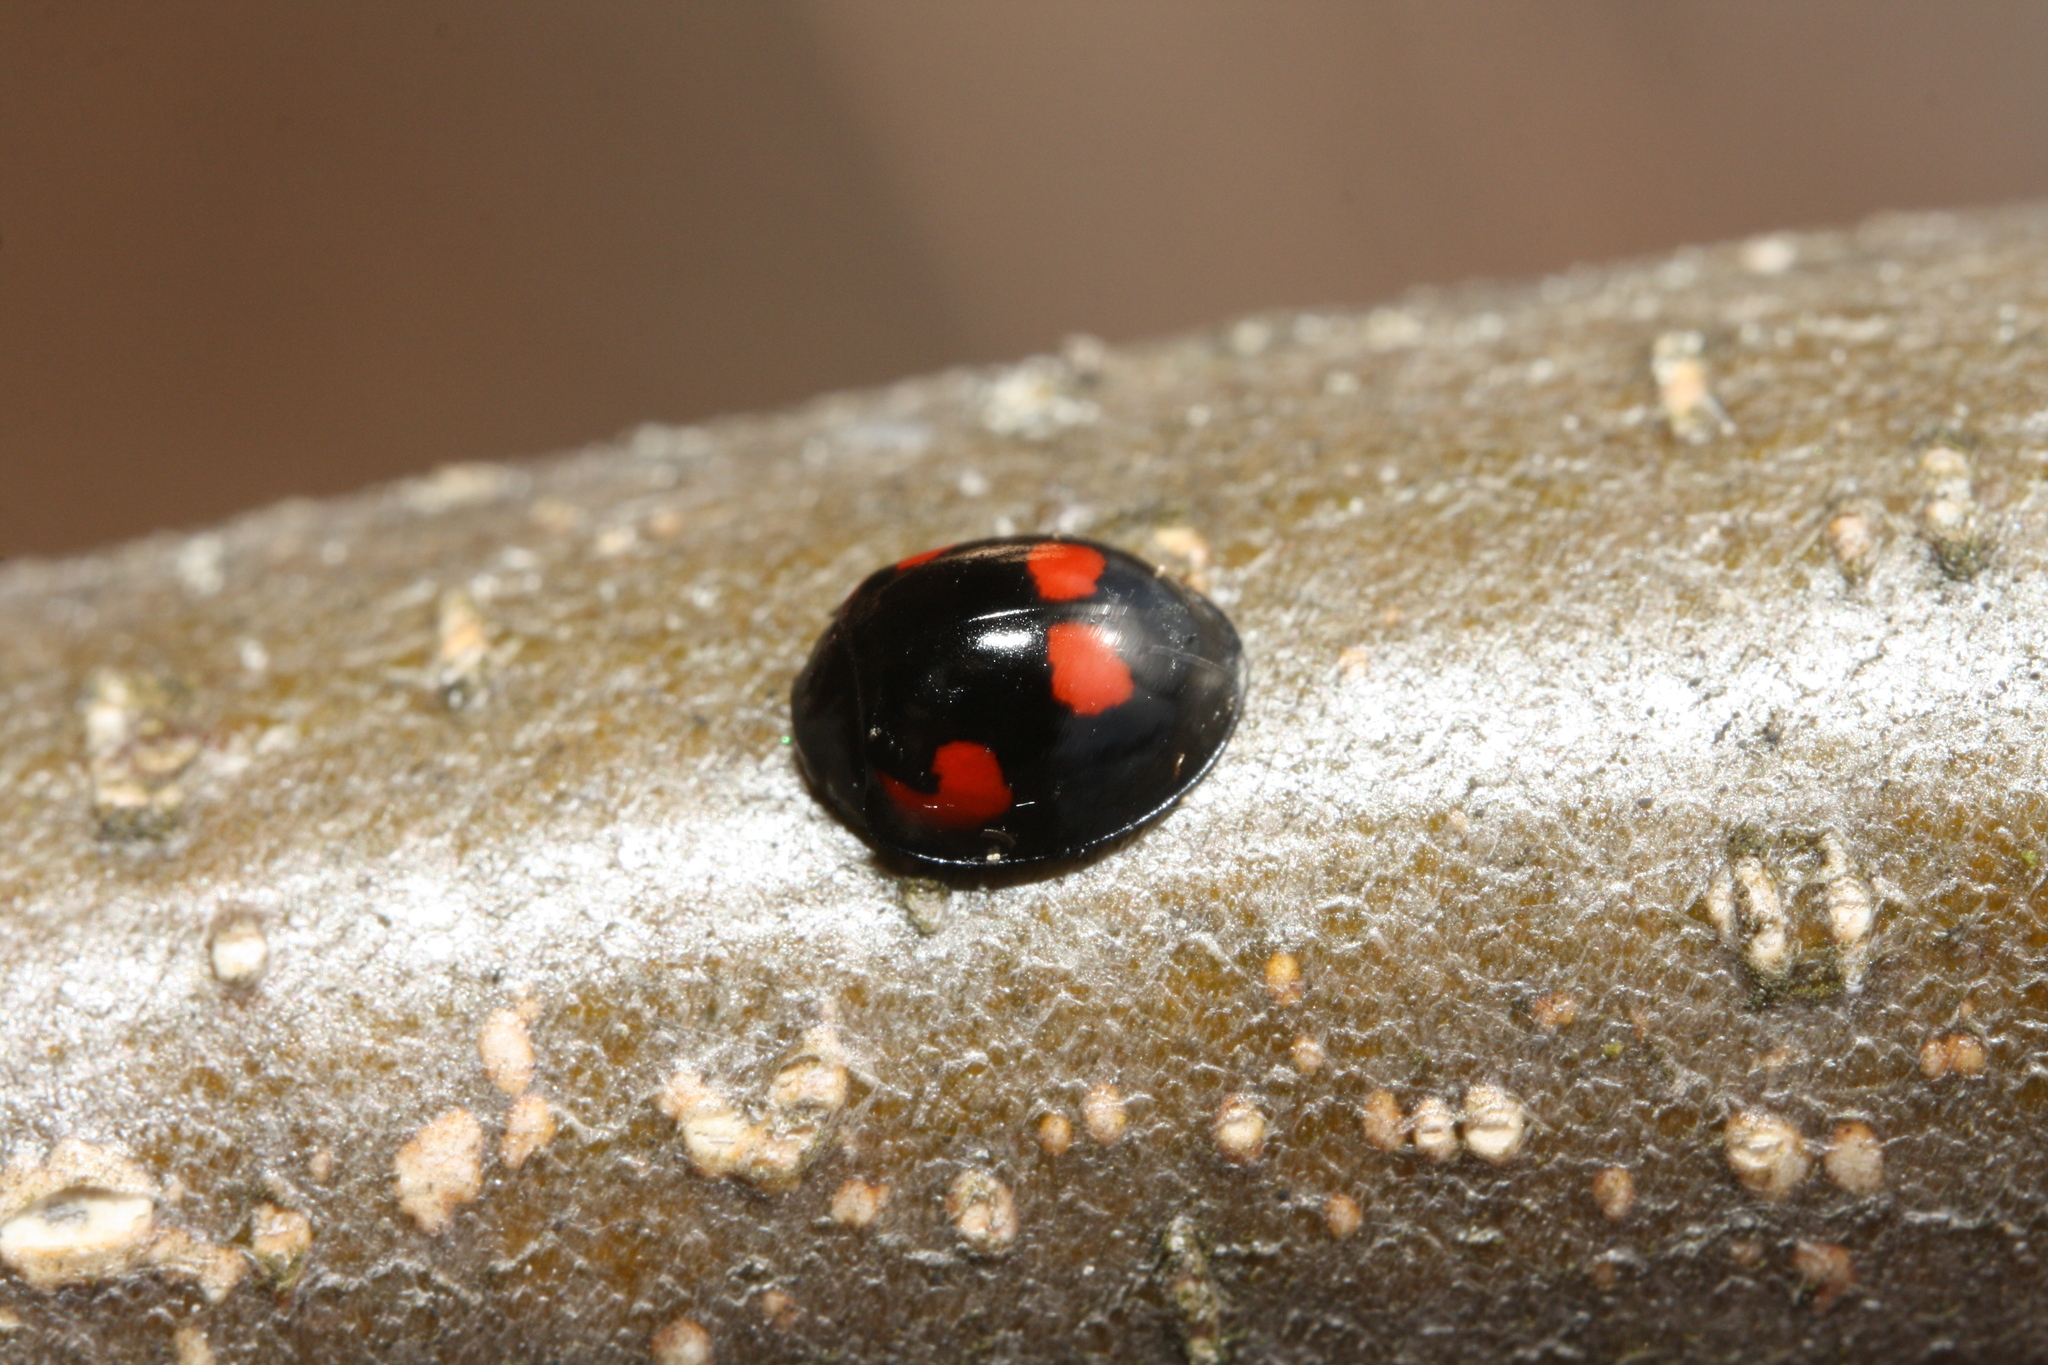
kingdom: Animalia
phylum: Arthropoda
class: Insecta
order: Coleoptera
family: Coccinellidae
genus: Brumus
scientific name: Brumus quadripustulatus
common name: Ladybird beetle
